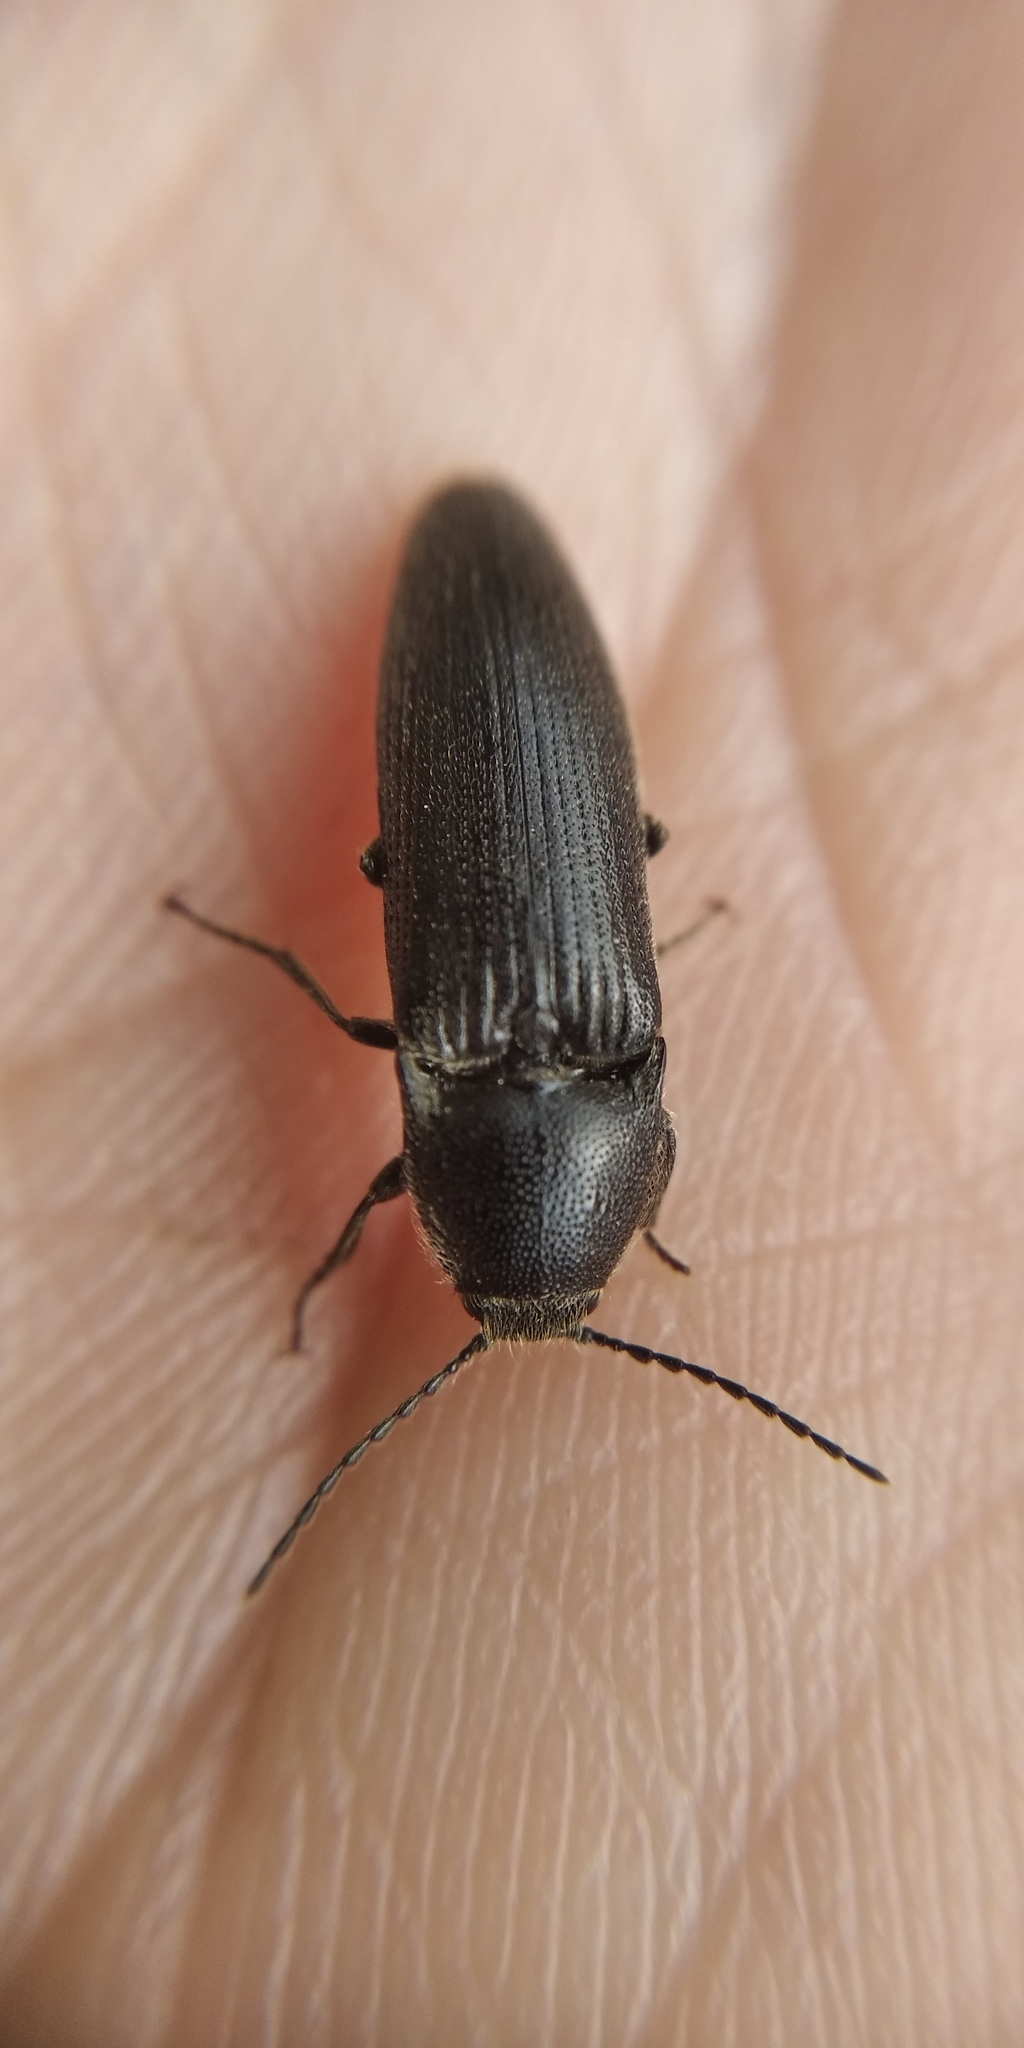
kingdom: Animalia
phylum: Arthropoda
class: Insecta
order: Coleoptera
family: Elateridae
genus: Melanotus
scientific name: Melanotus punctolineatus
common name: Sandwich click beetle
